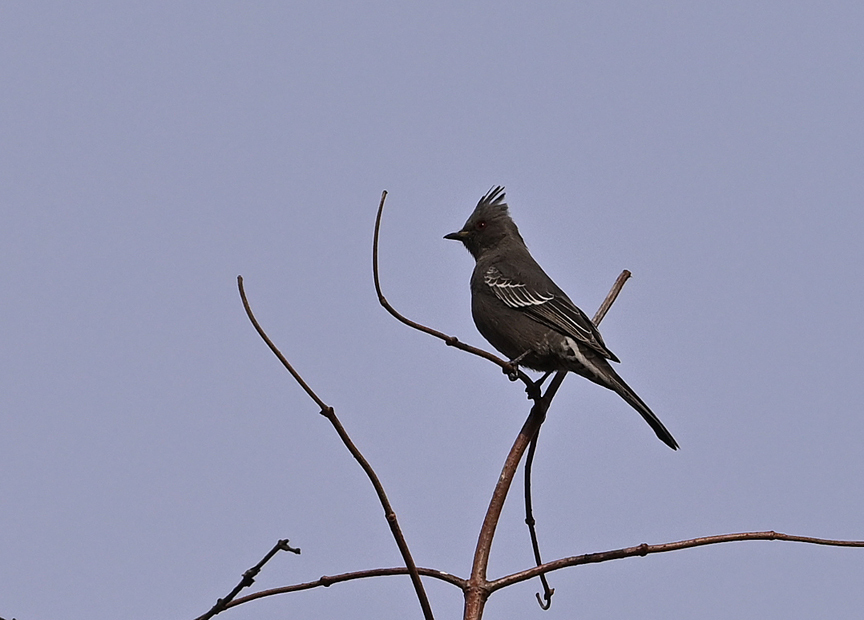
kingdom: Animalia
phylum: Chordata
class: Aves
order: Passeriformes
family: Ptilogonatidae
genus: Phainopepla
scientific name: Phainopepla nitens
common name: Phainopepla
